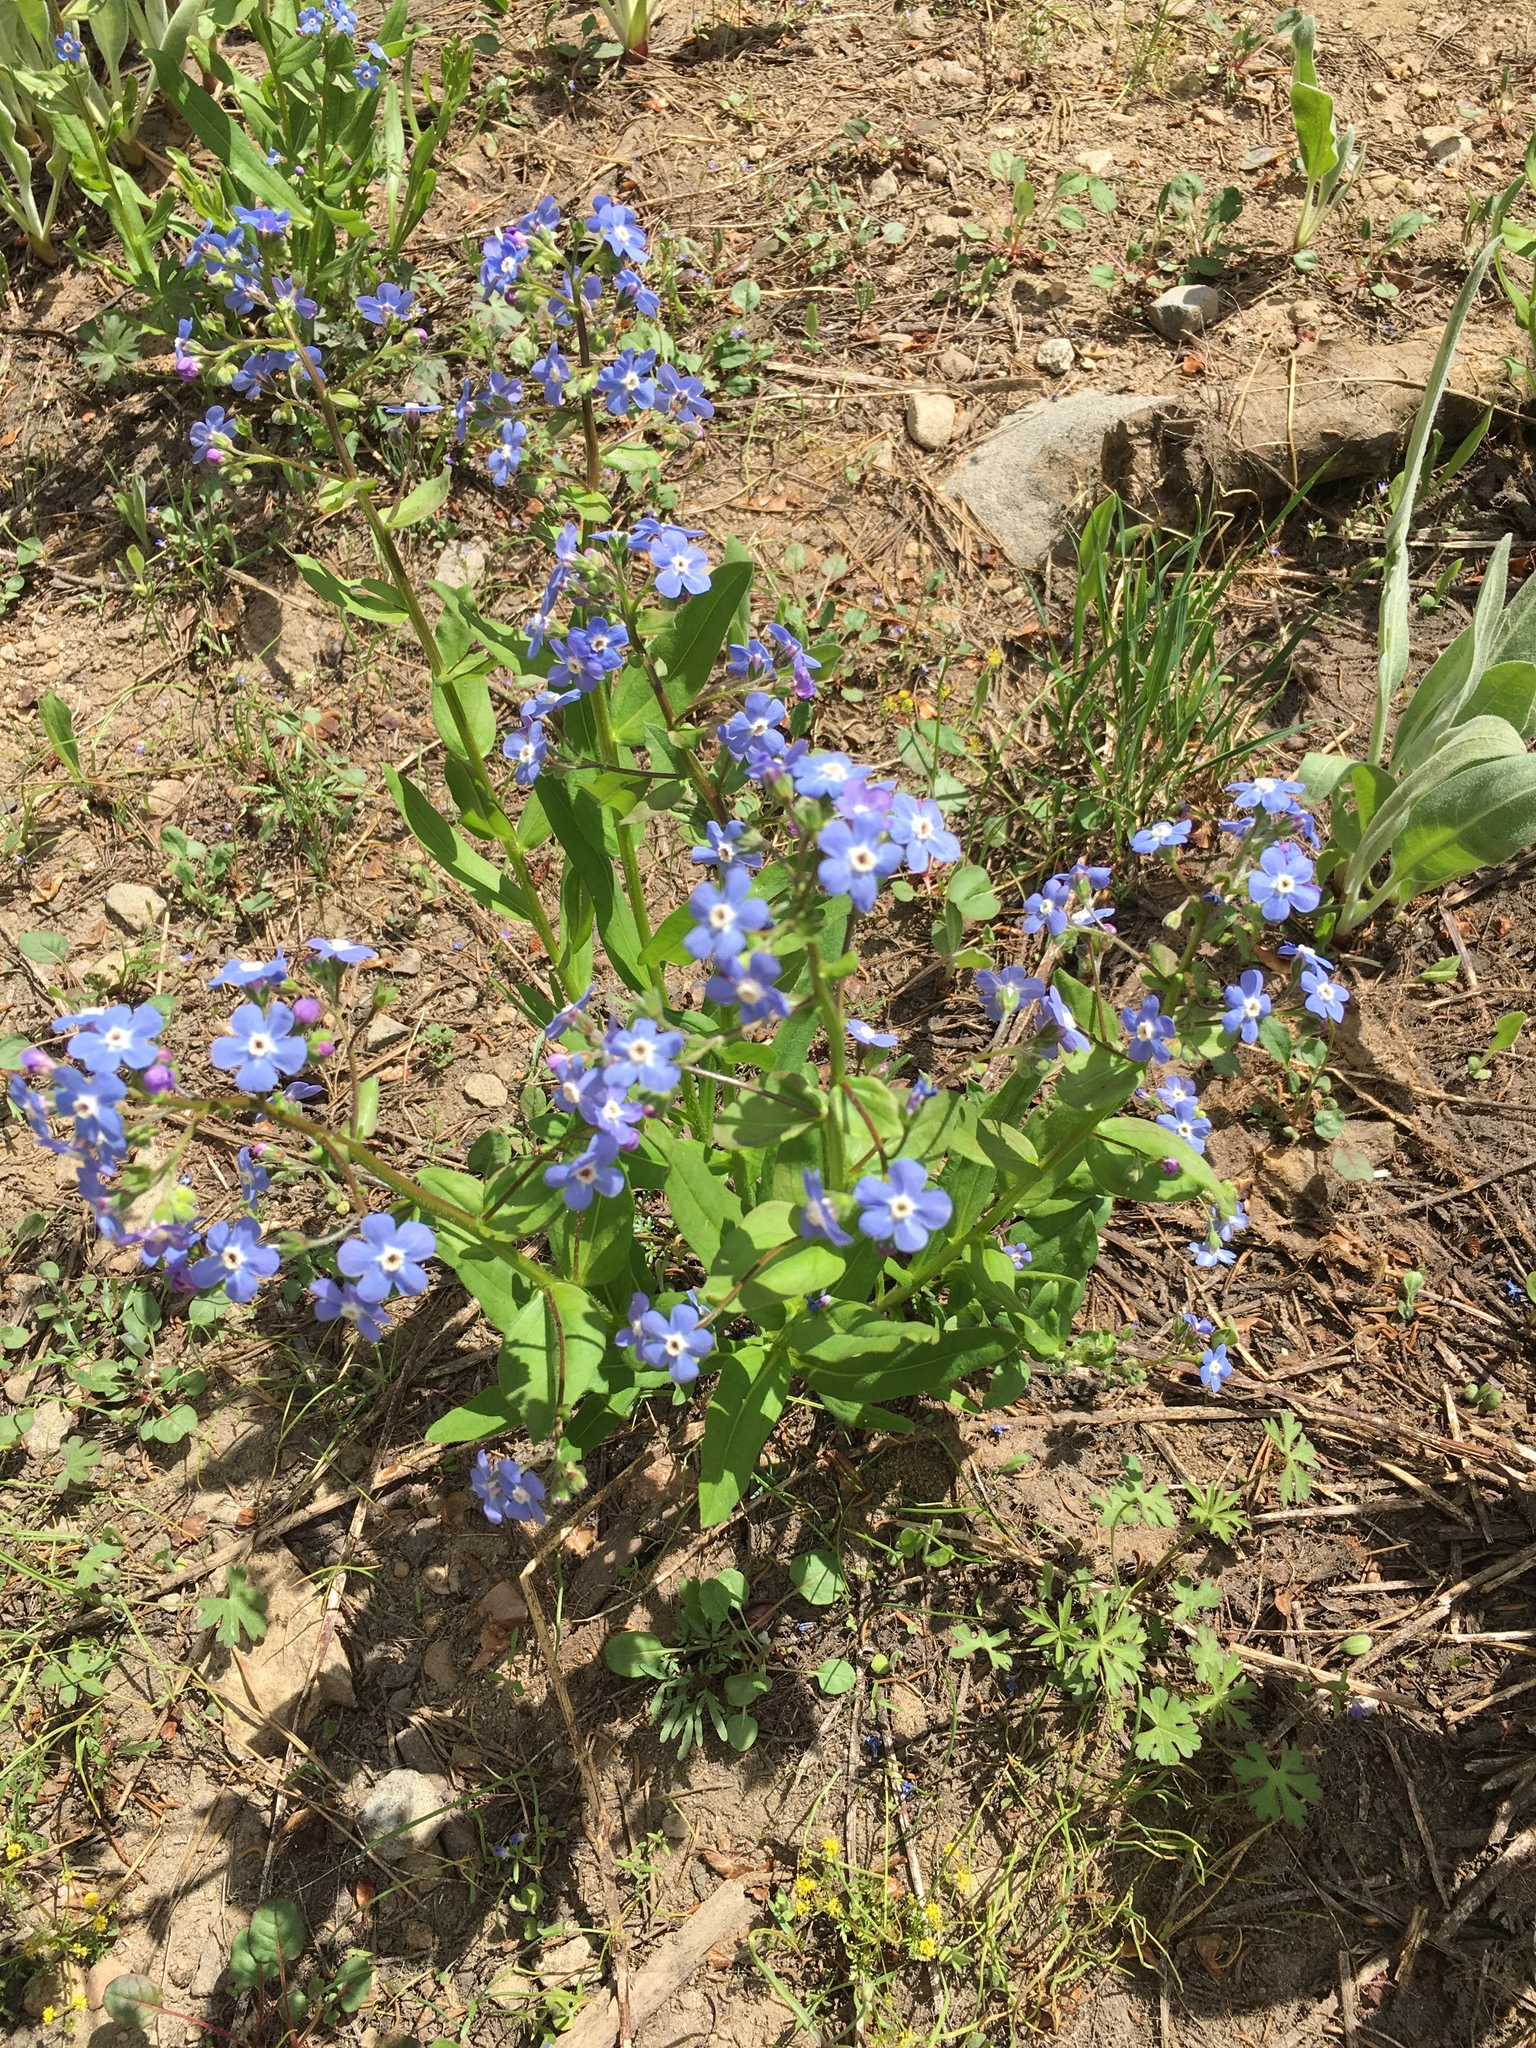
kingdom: Plantae
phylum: Tracheophyta
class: Magnoliopsida
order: Boraginales
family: Boraginaceae
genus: Hackelia
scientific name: Hackelia velutina
